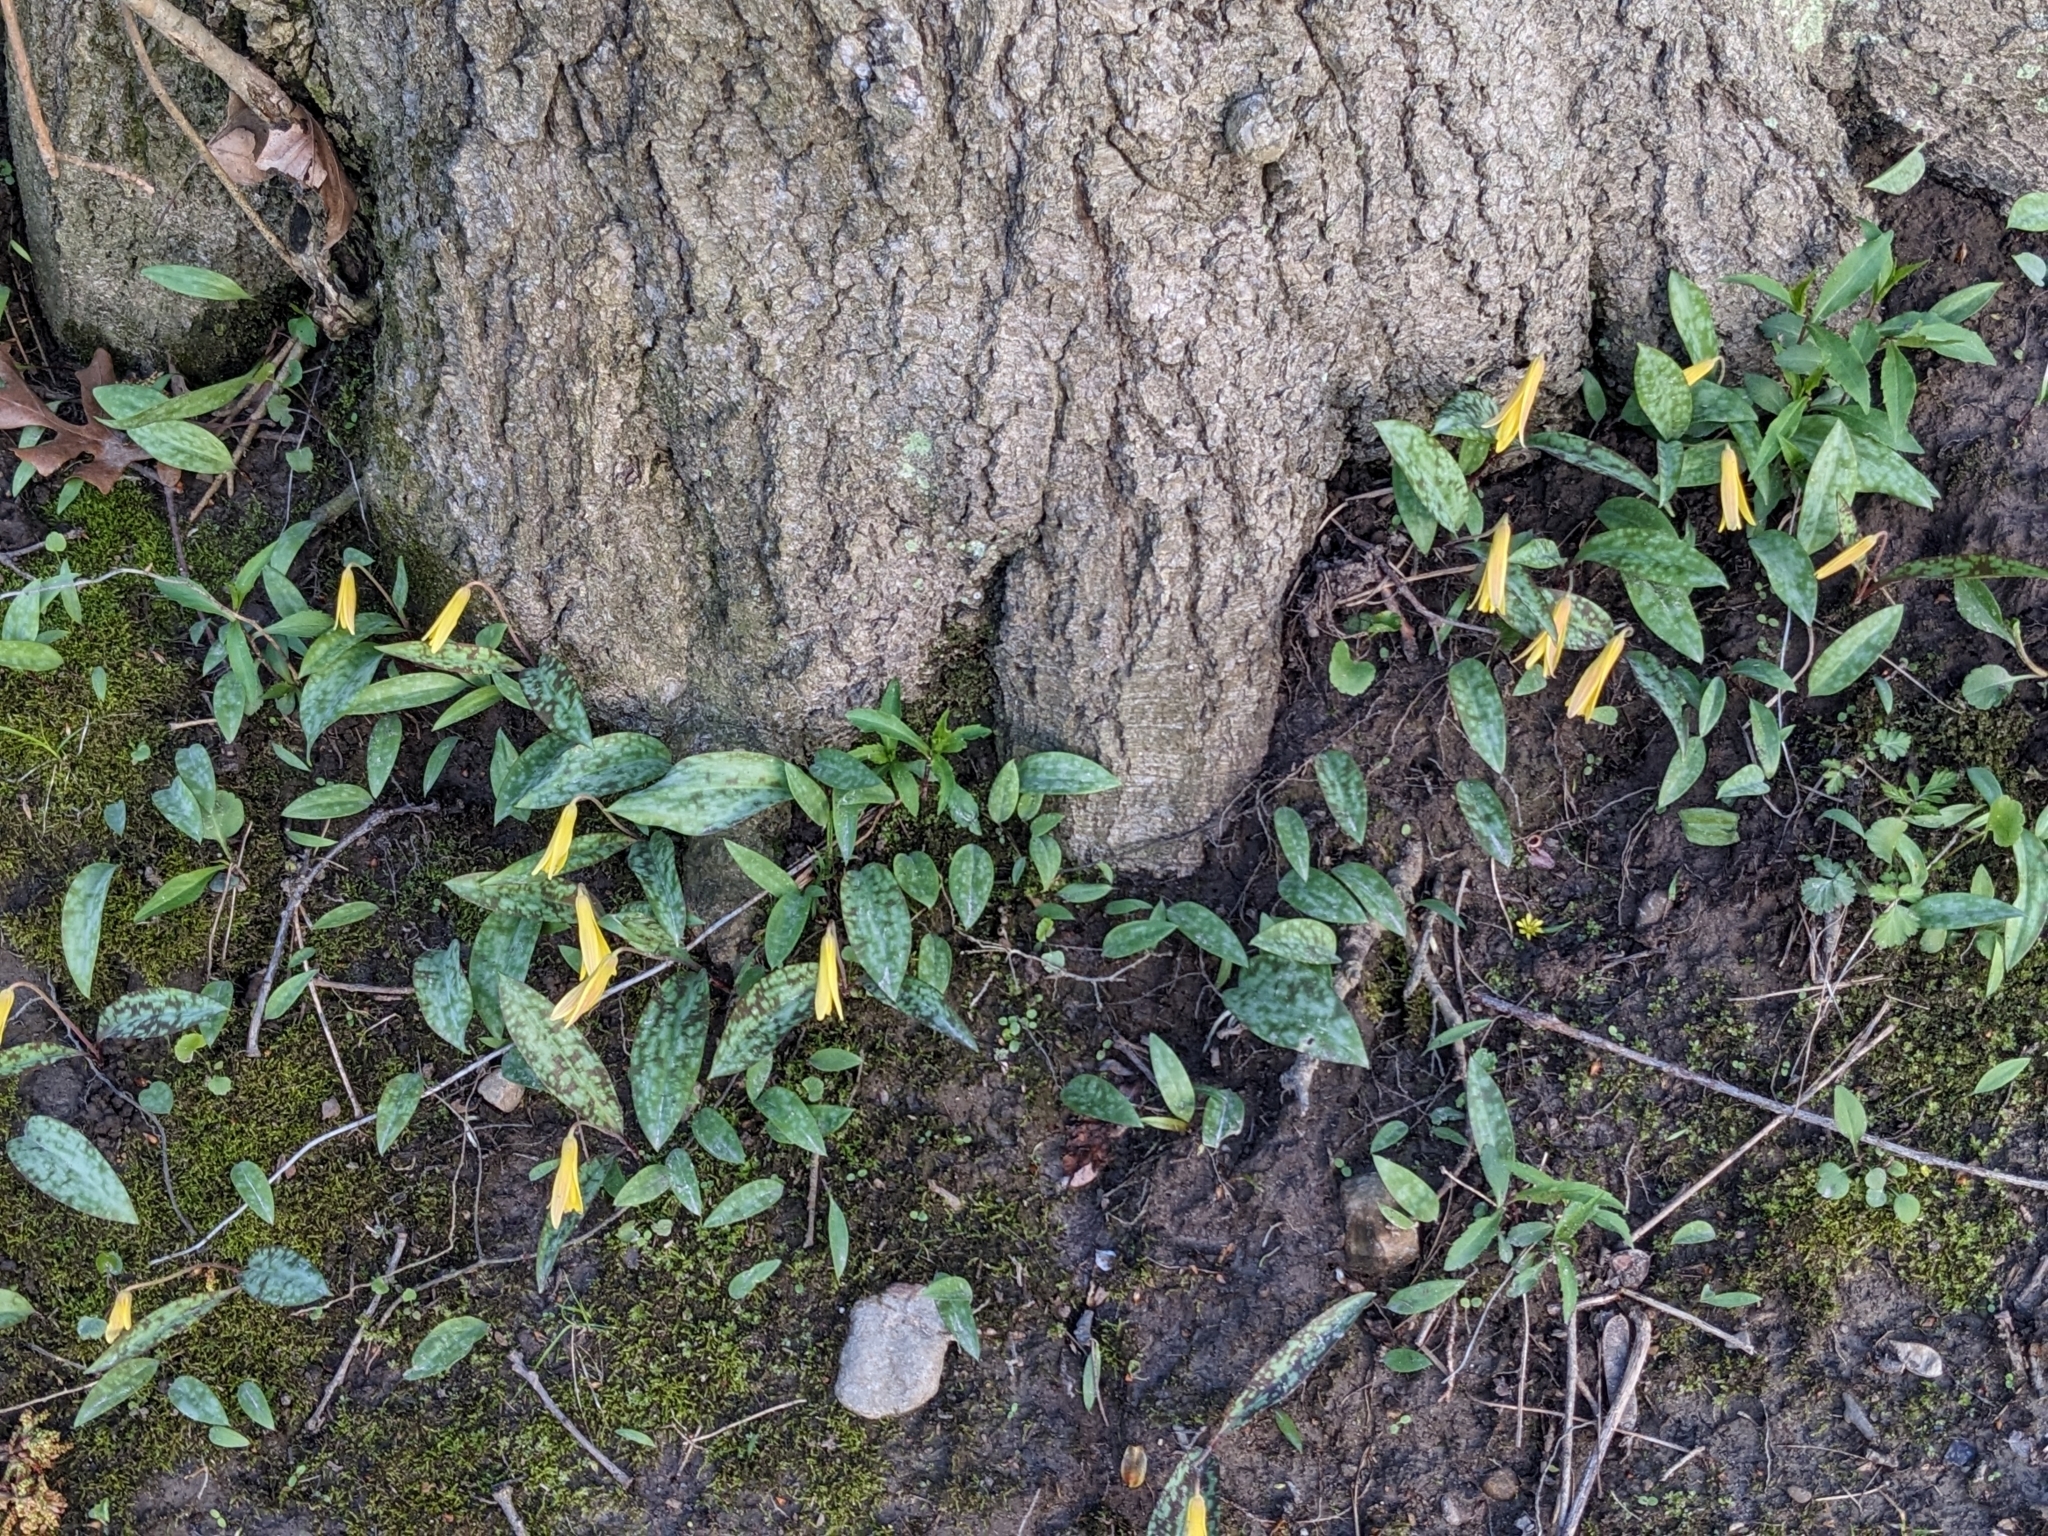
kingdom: Plantae
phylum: Tracheophyta
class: Liliopsida
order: Liliales
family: Liliaceae
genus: Erythronium
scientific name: Erythronium americanum
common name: Yellow adder's-tongue
